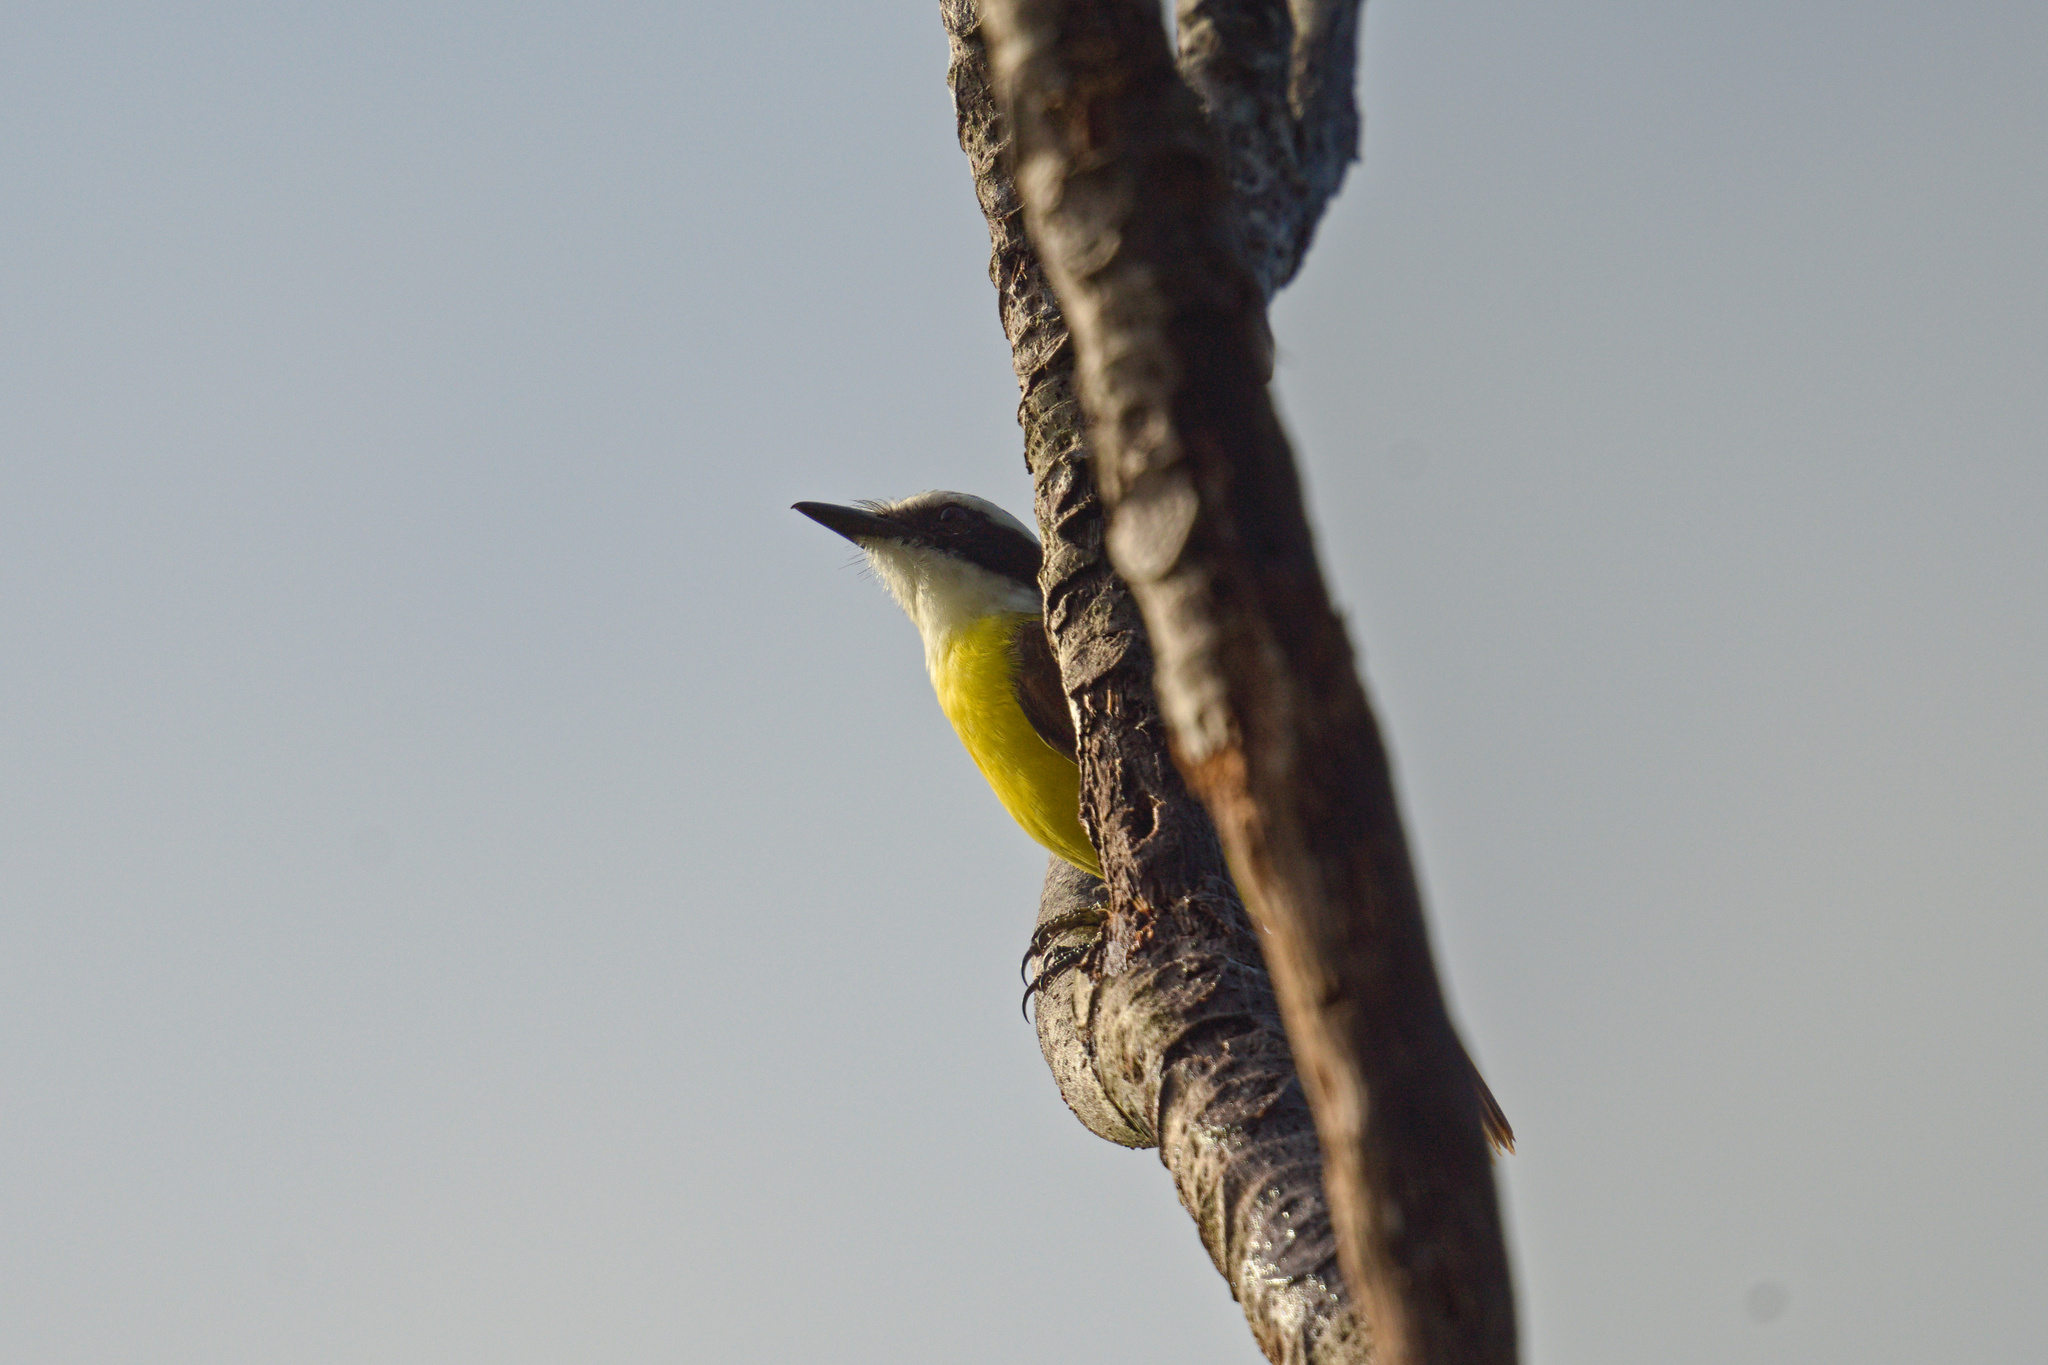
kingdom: Animalia
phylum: Chordata
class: Aves
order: Passeriformes
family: Tyrannidae
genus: Pitangus
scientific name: Pitangus sulphuratus
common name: Great kiskadee
